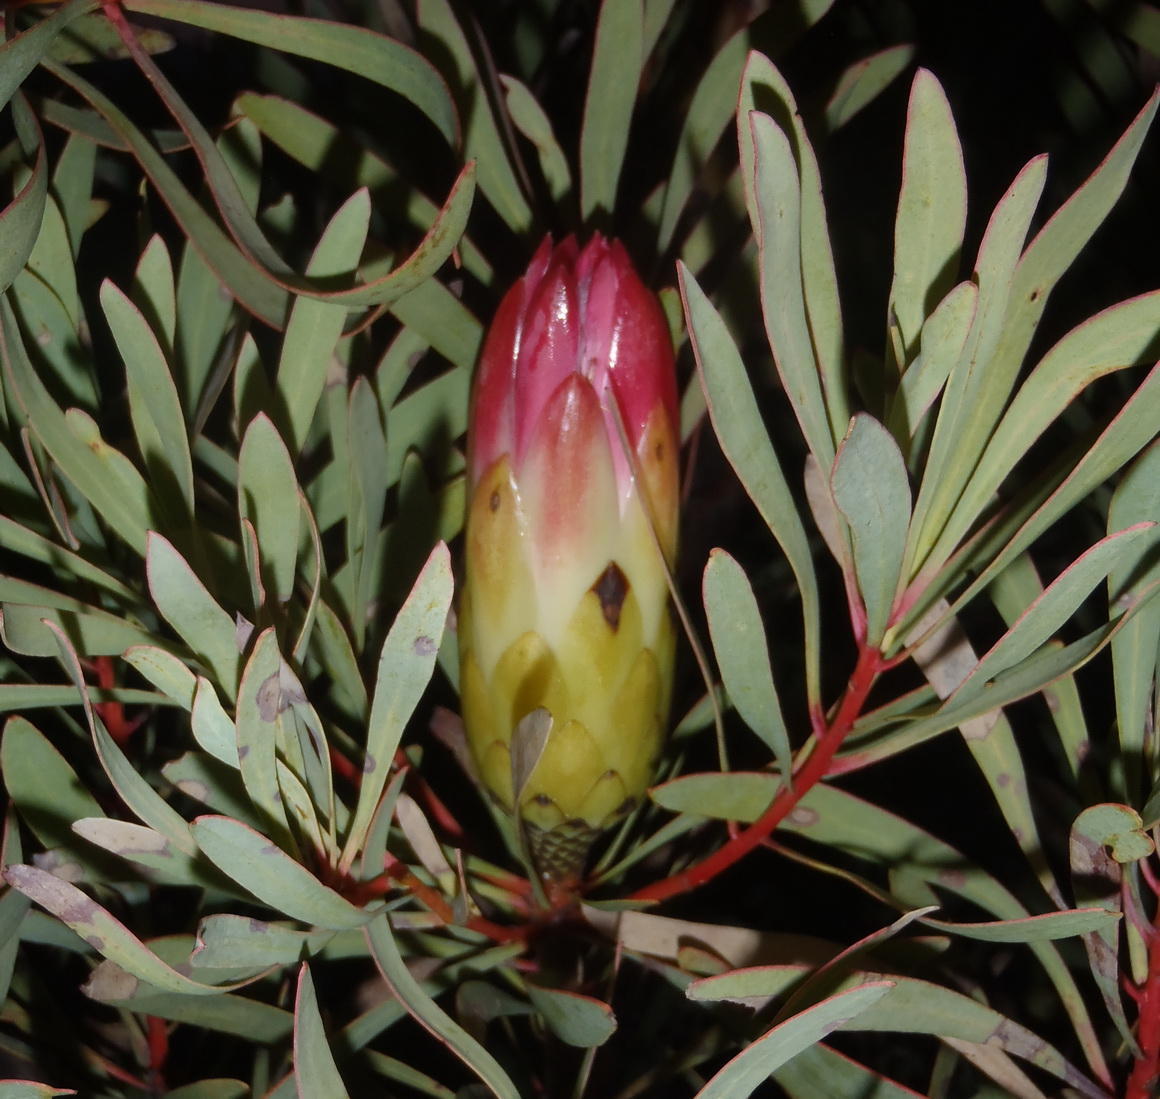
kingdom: Plantae
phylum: Tracheophyta
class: Magnoliopsida
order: Proteales
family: Proteaceae
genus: Protea
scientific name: Protea repens
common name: Sugarbush
